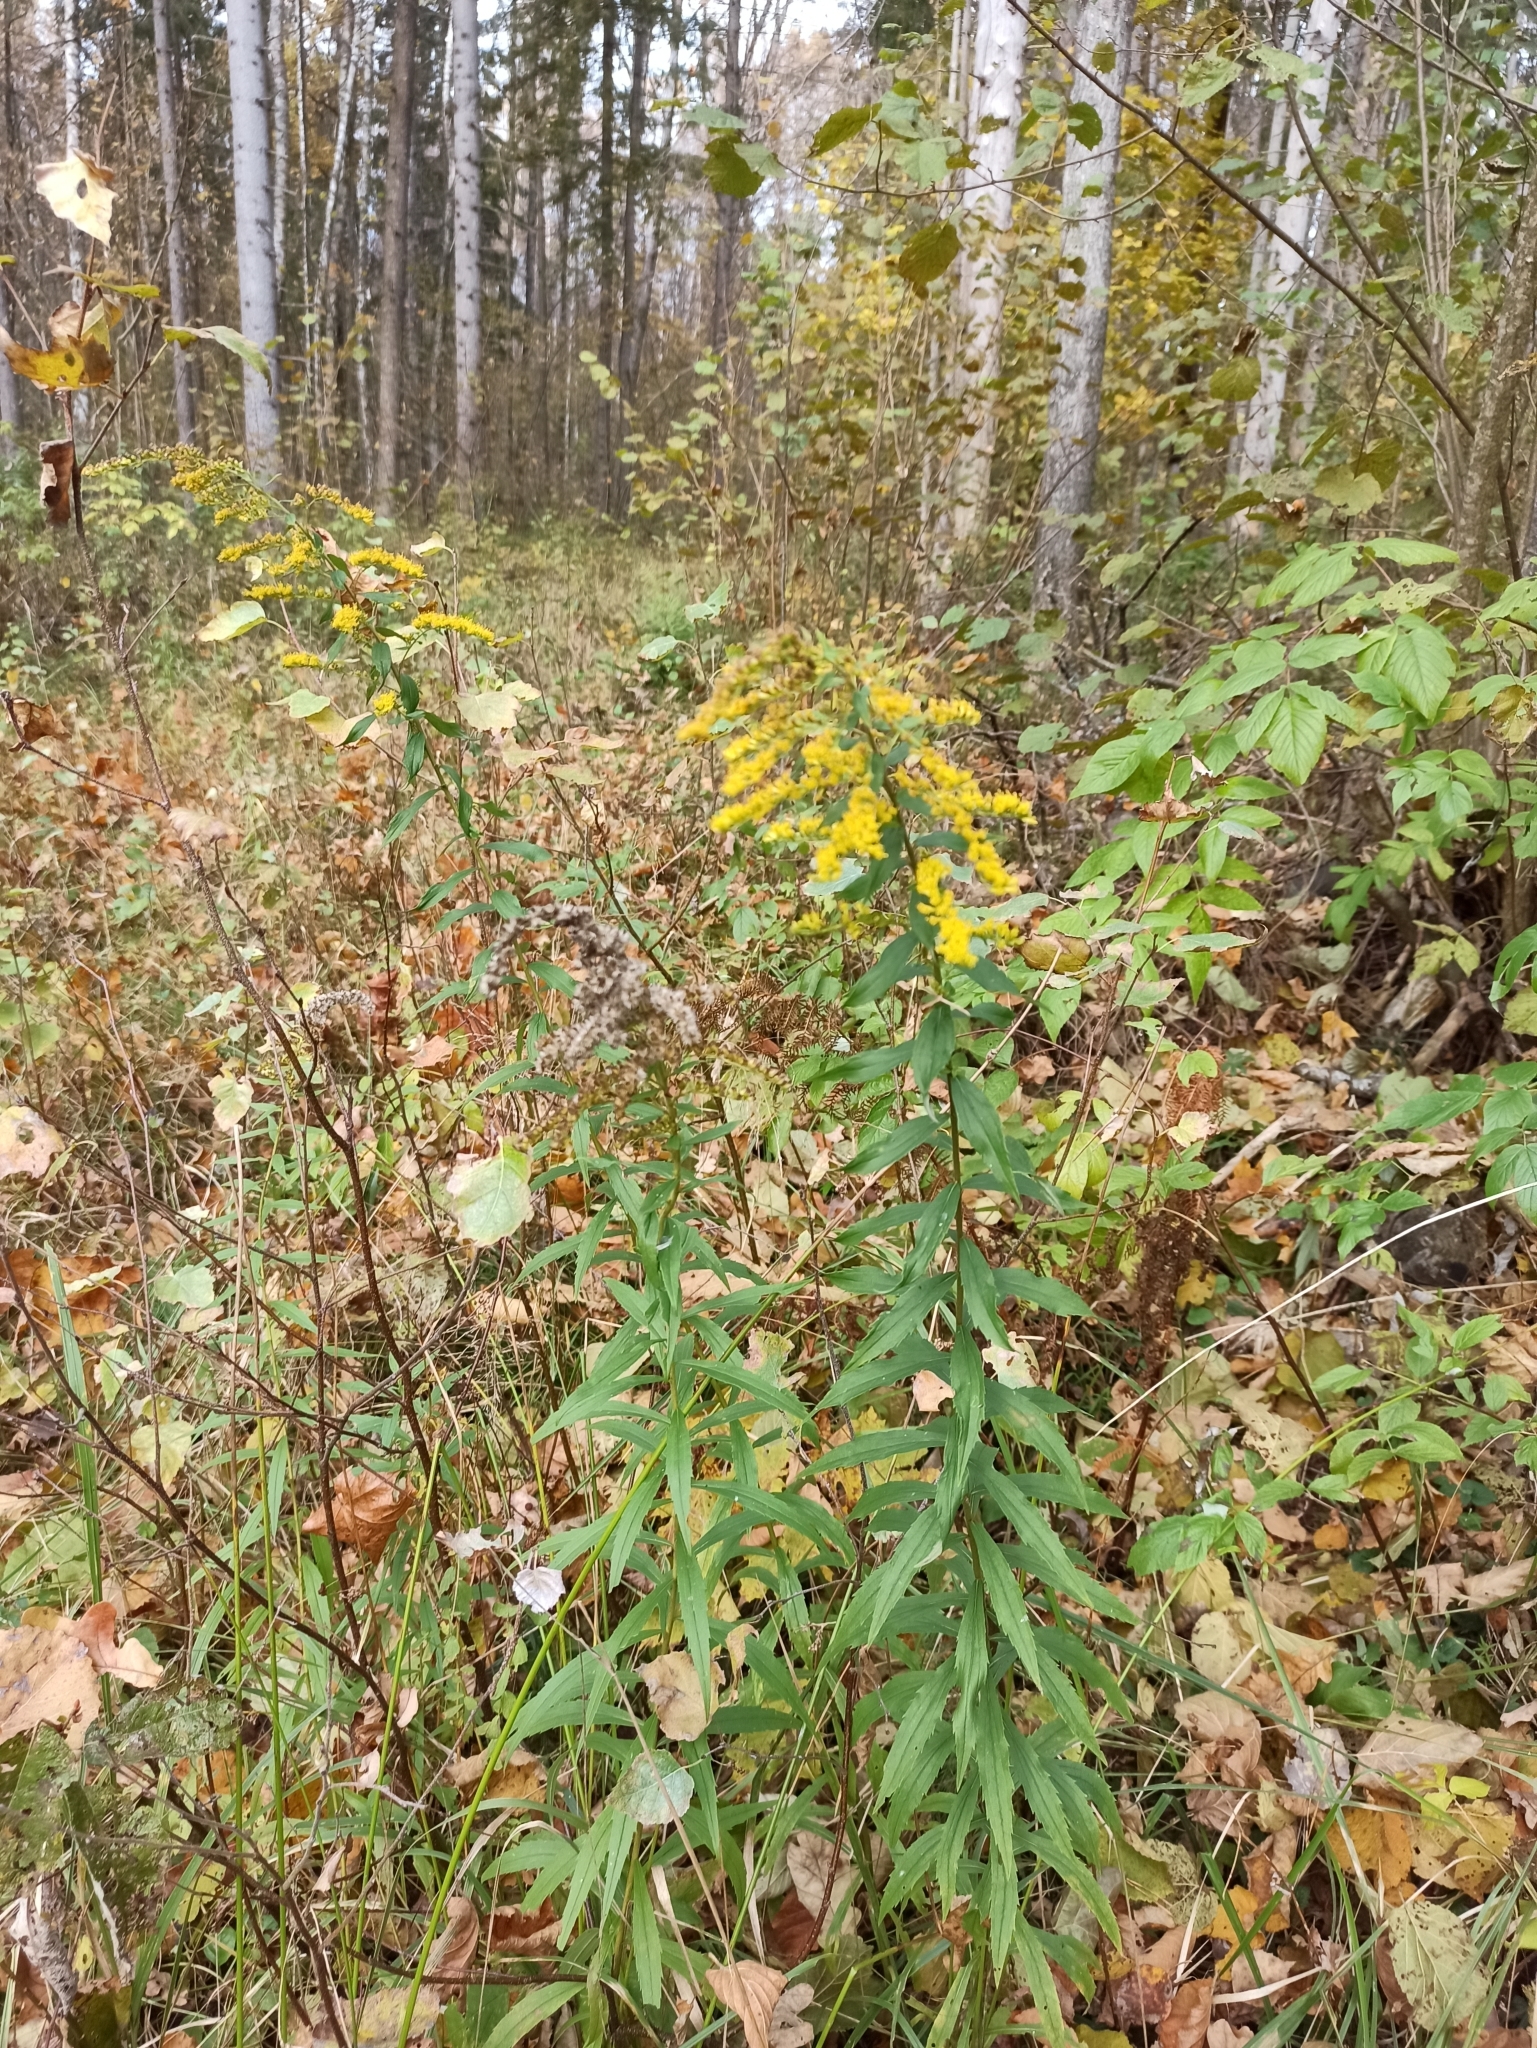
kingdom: Plantae
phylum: Tracheophyta
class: Magnoliopsida
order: Asterales
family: Asteraceae
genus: Solidago
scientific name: Solidago canadensis
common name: Canada goldenrod
